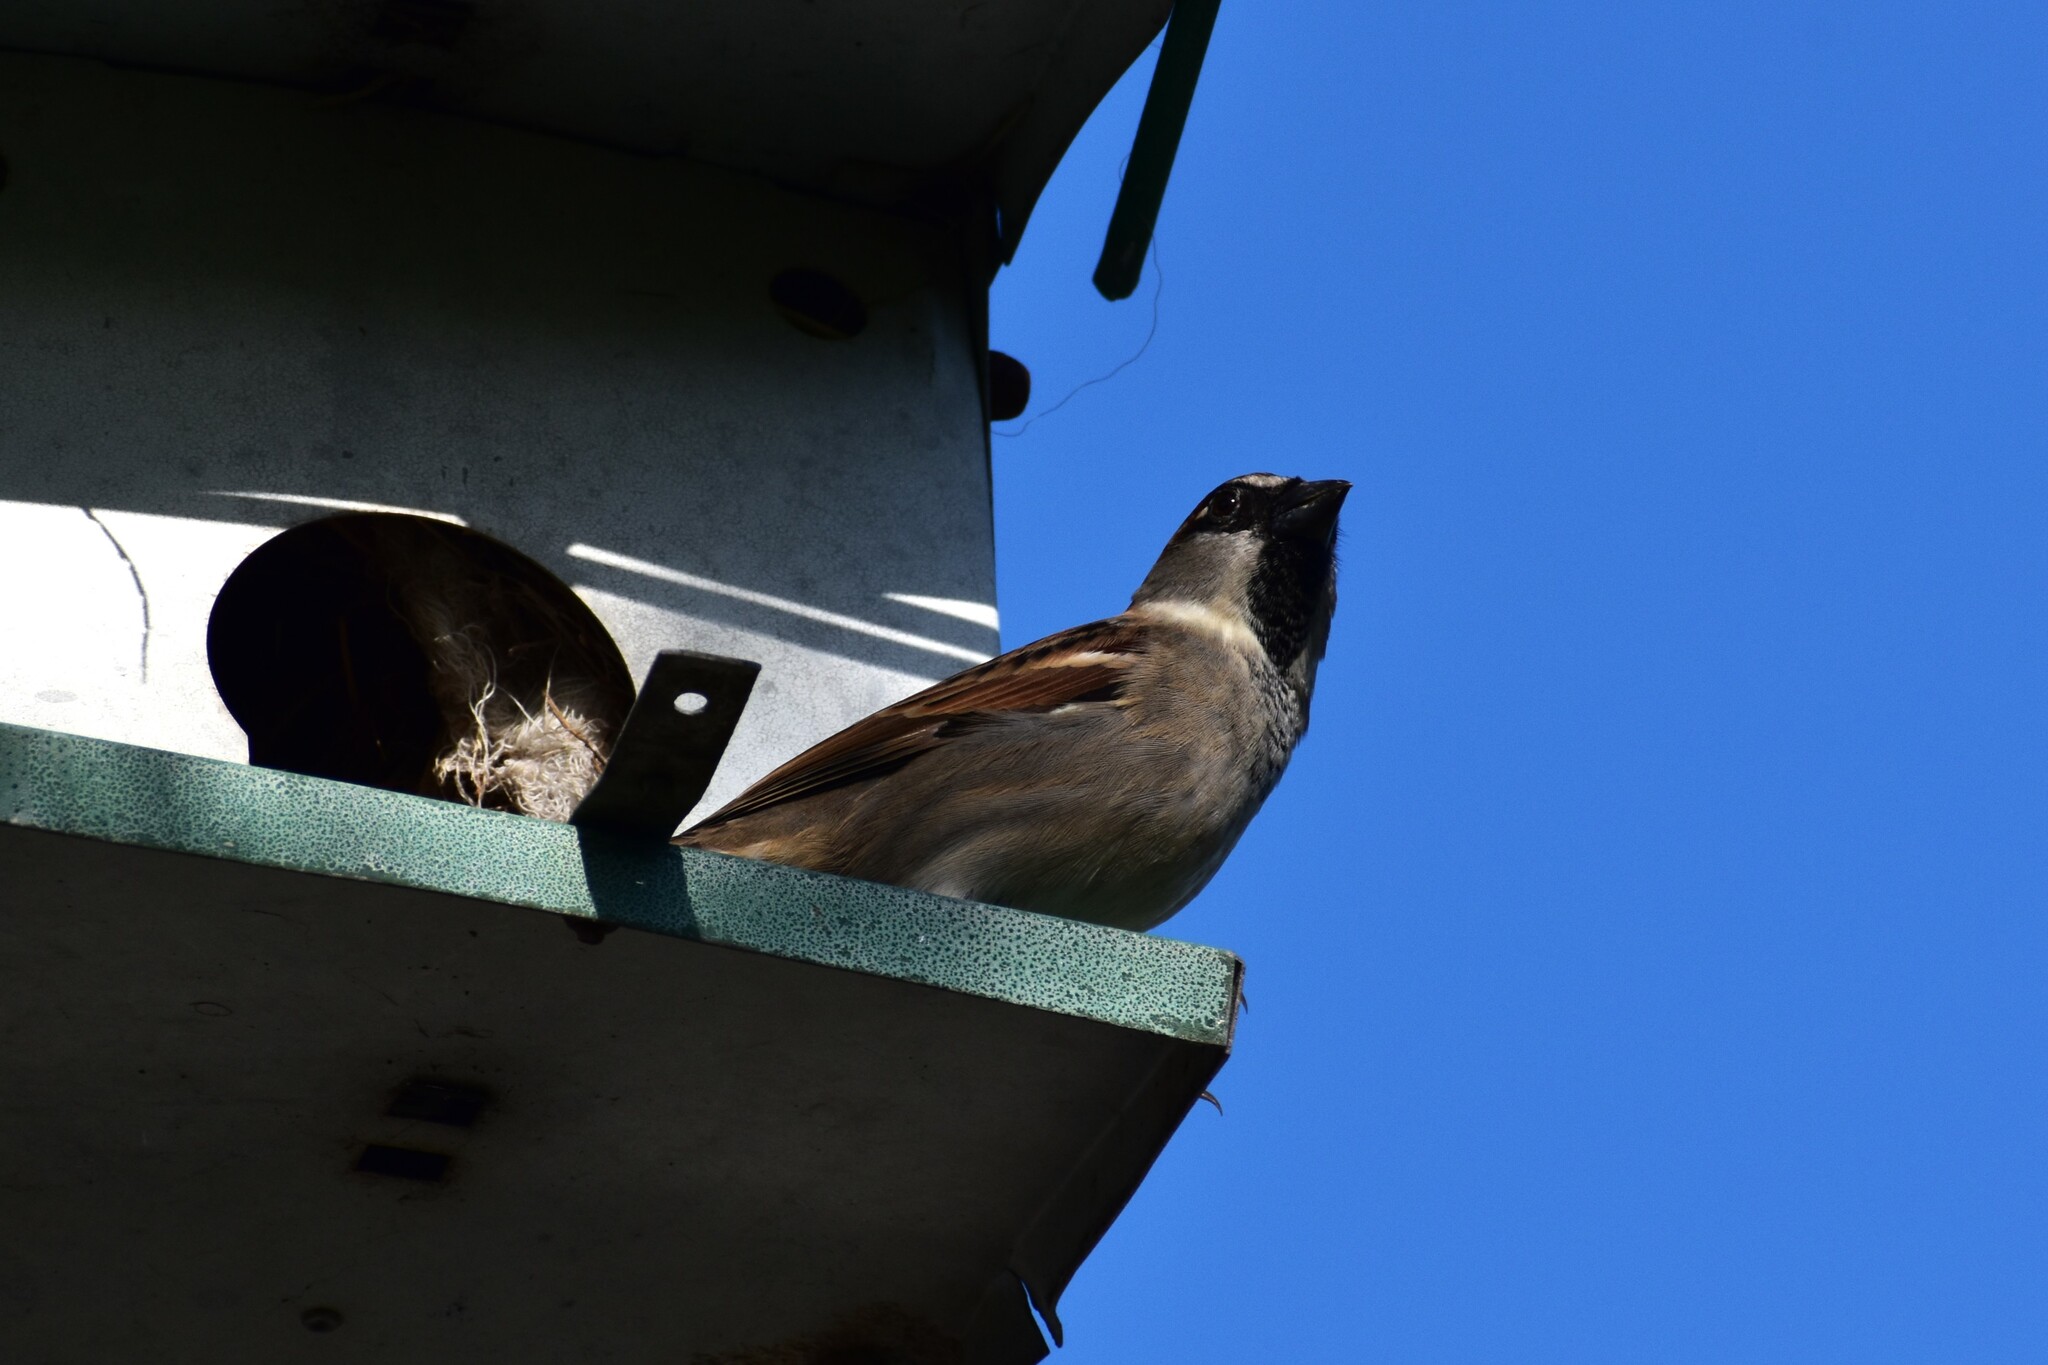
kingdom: Animalia
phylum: Chordata
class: Aves
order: Passeriformes
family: Passeridae
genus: Passer
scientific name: Passer domesticus
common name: House sparrow
